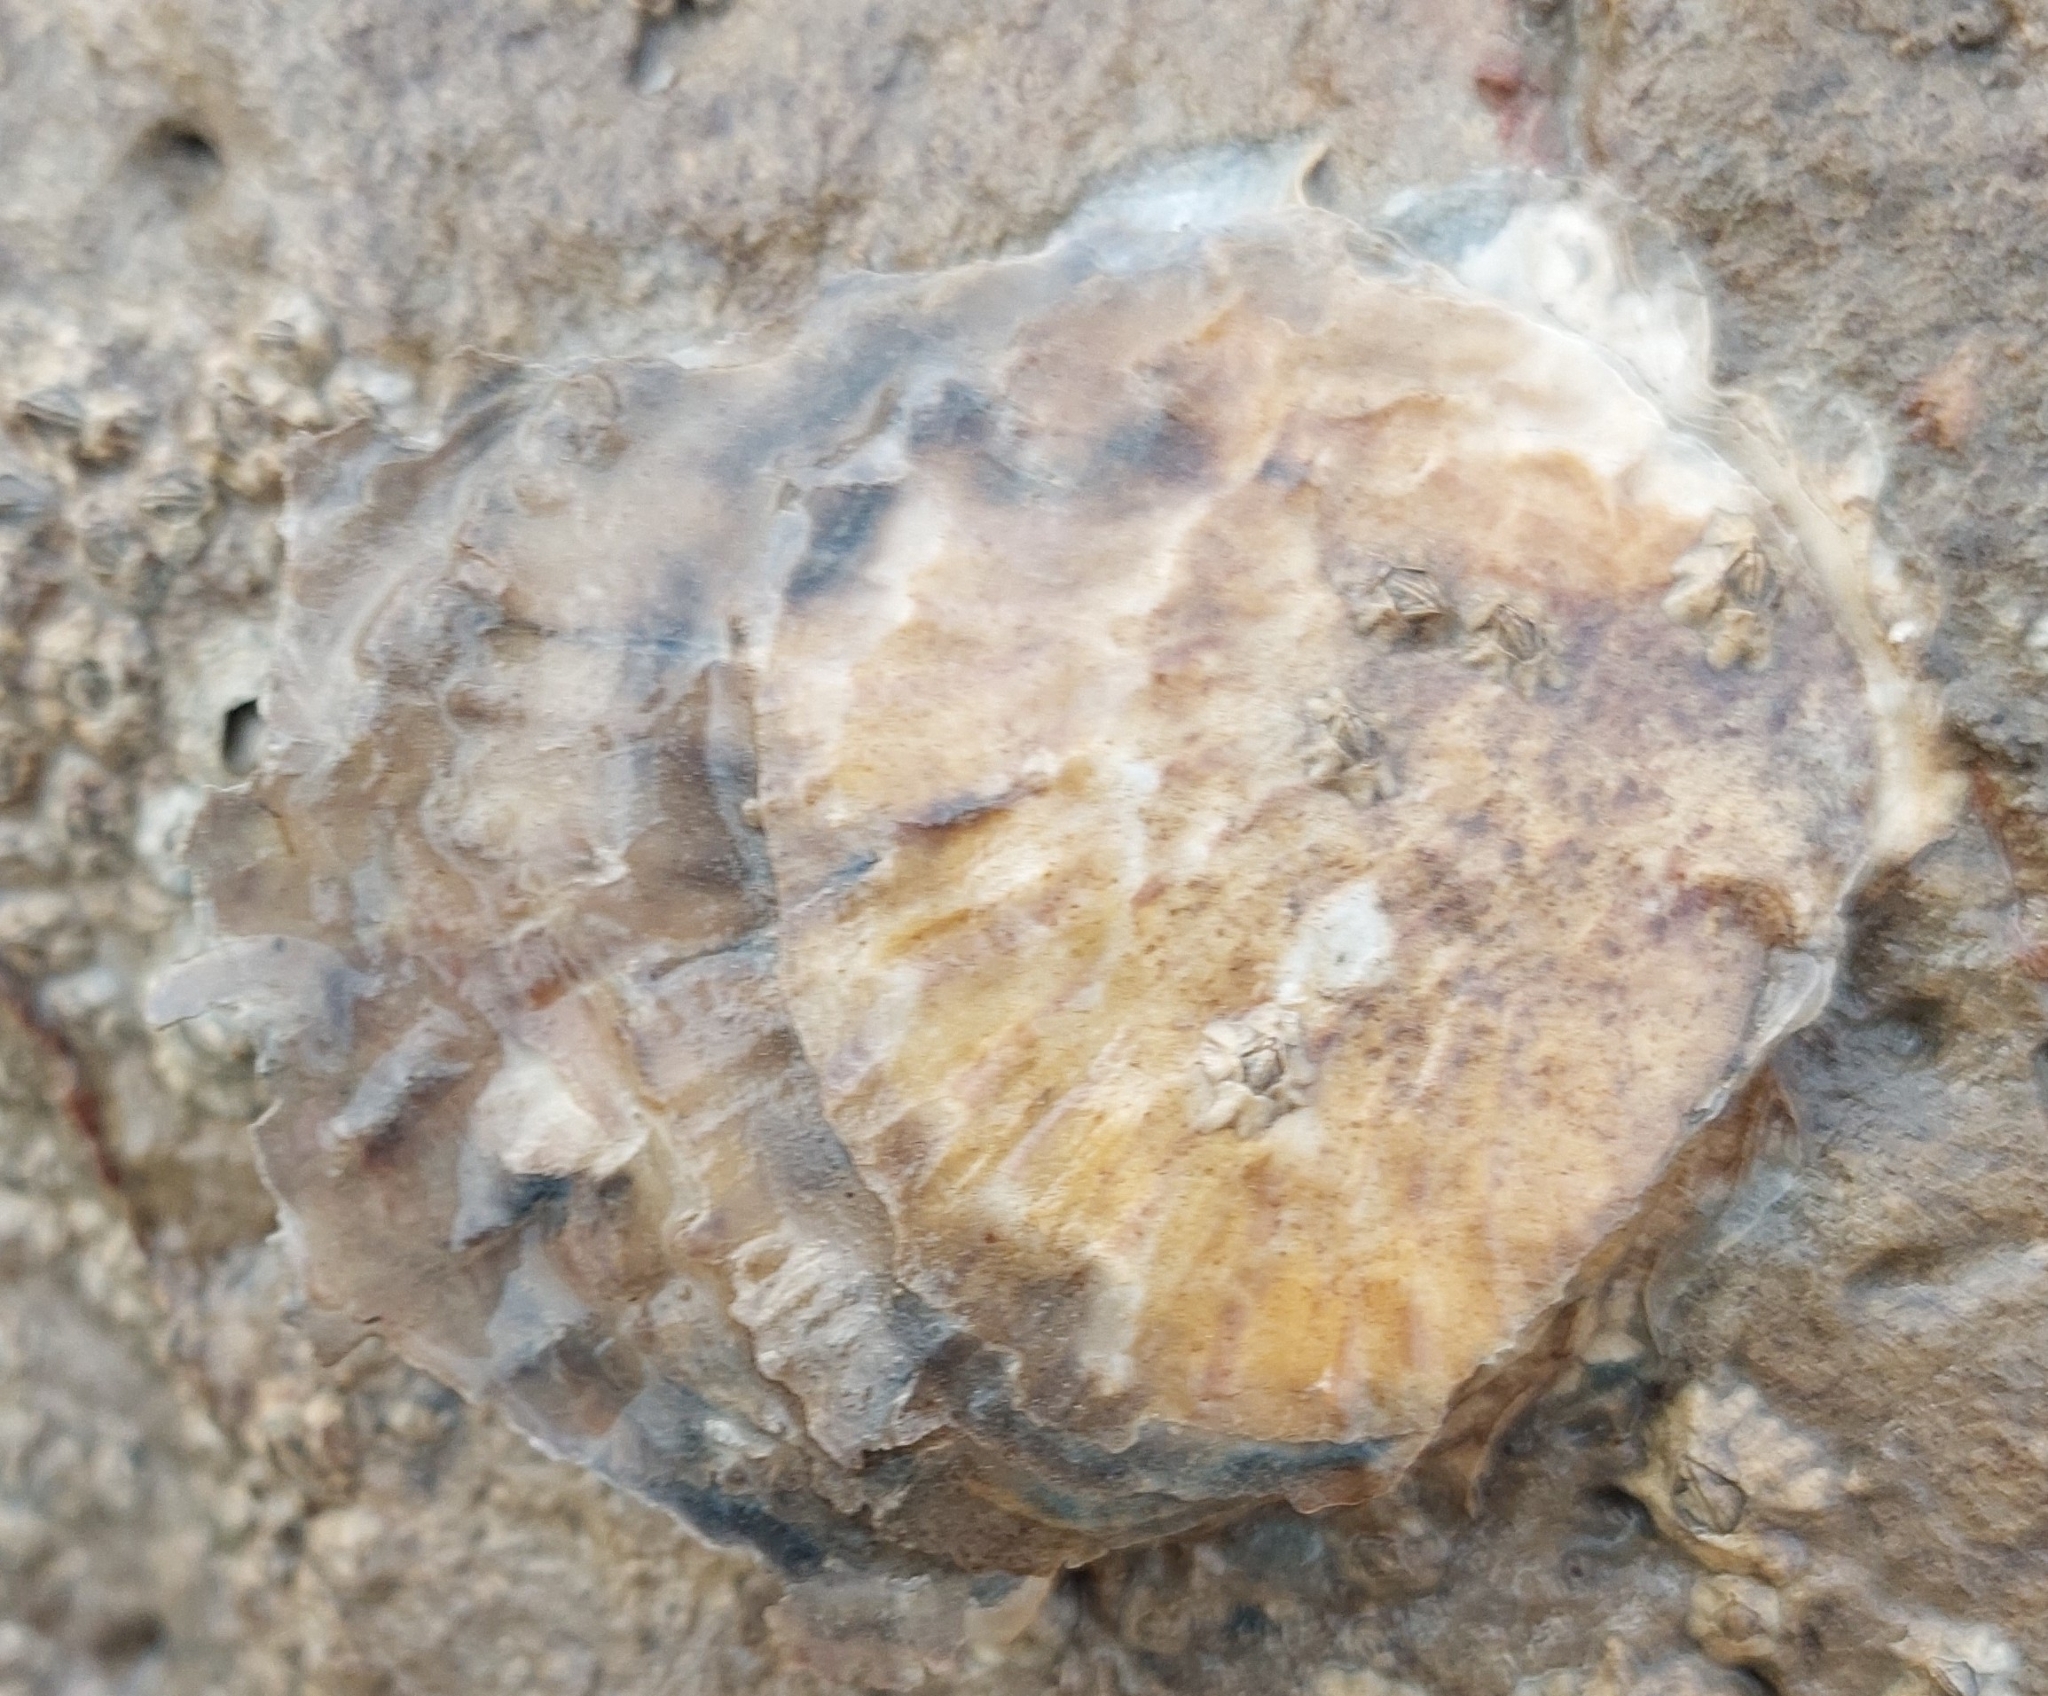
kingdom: Animalia
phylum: Mollusca
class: Bivalvia
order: Ostreida
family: Ostreidae
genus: Magallana
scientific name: Magallana gigas
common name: Pacific oyster
